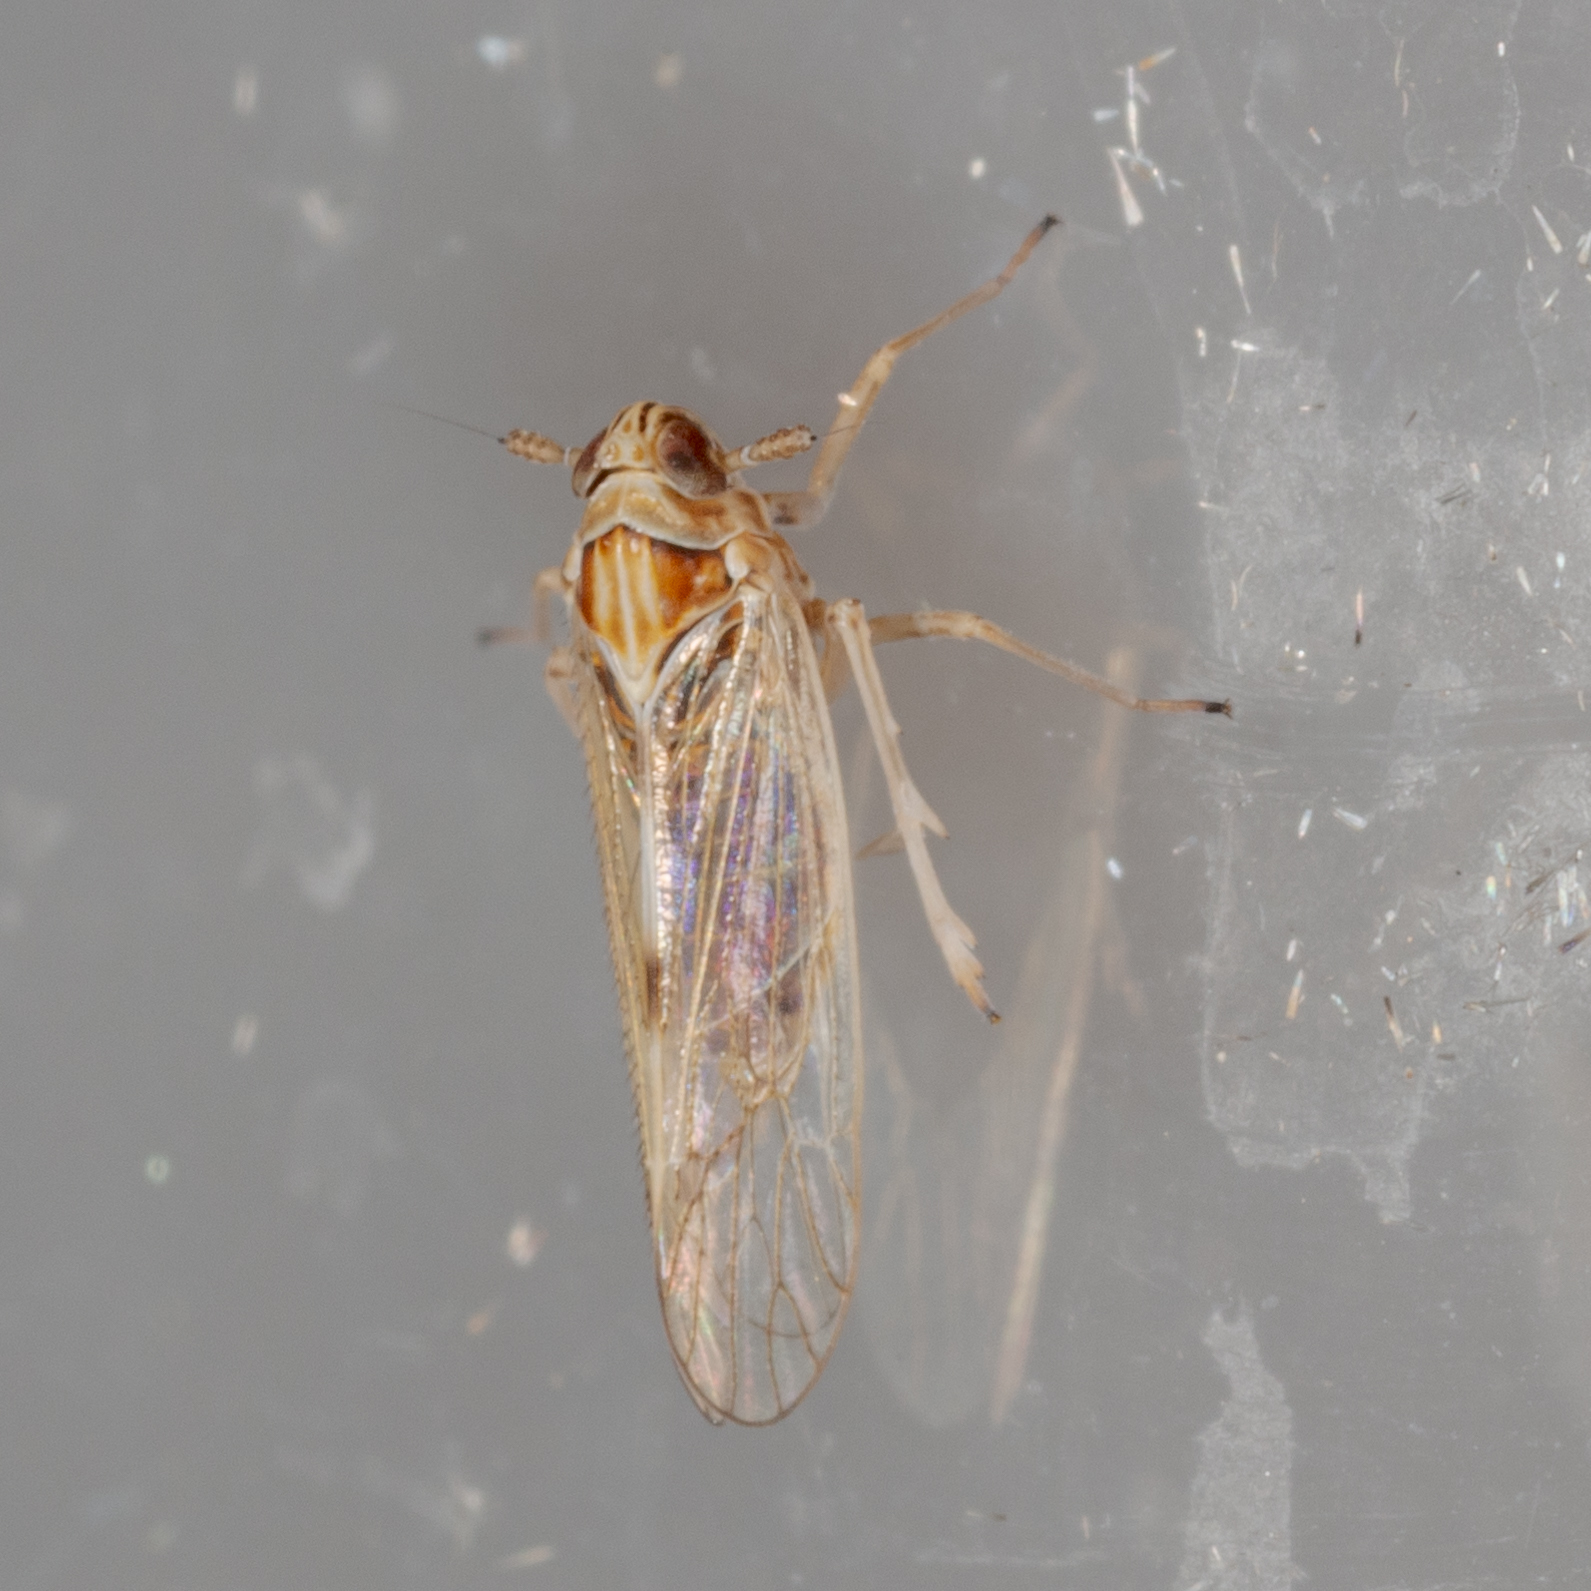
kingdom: Animalia
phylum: Arthropoda
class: Insecta
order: Hemiptera
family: Delphacidae
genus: Chionomus
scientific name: Chionomus
